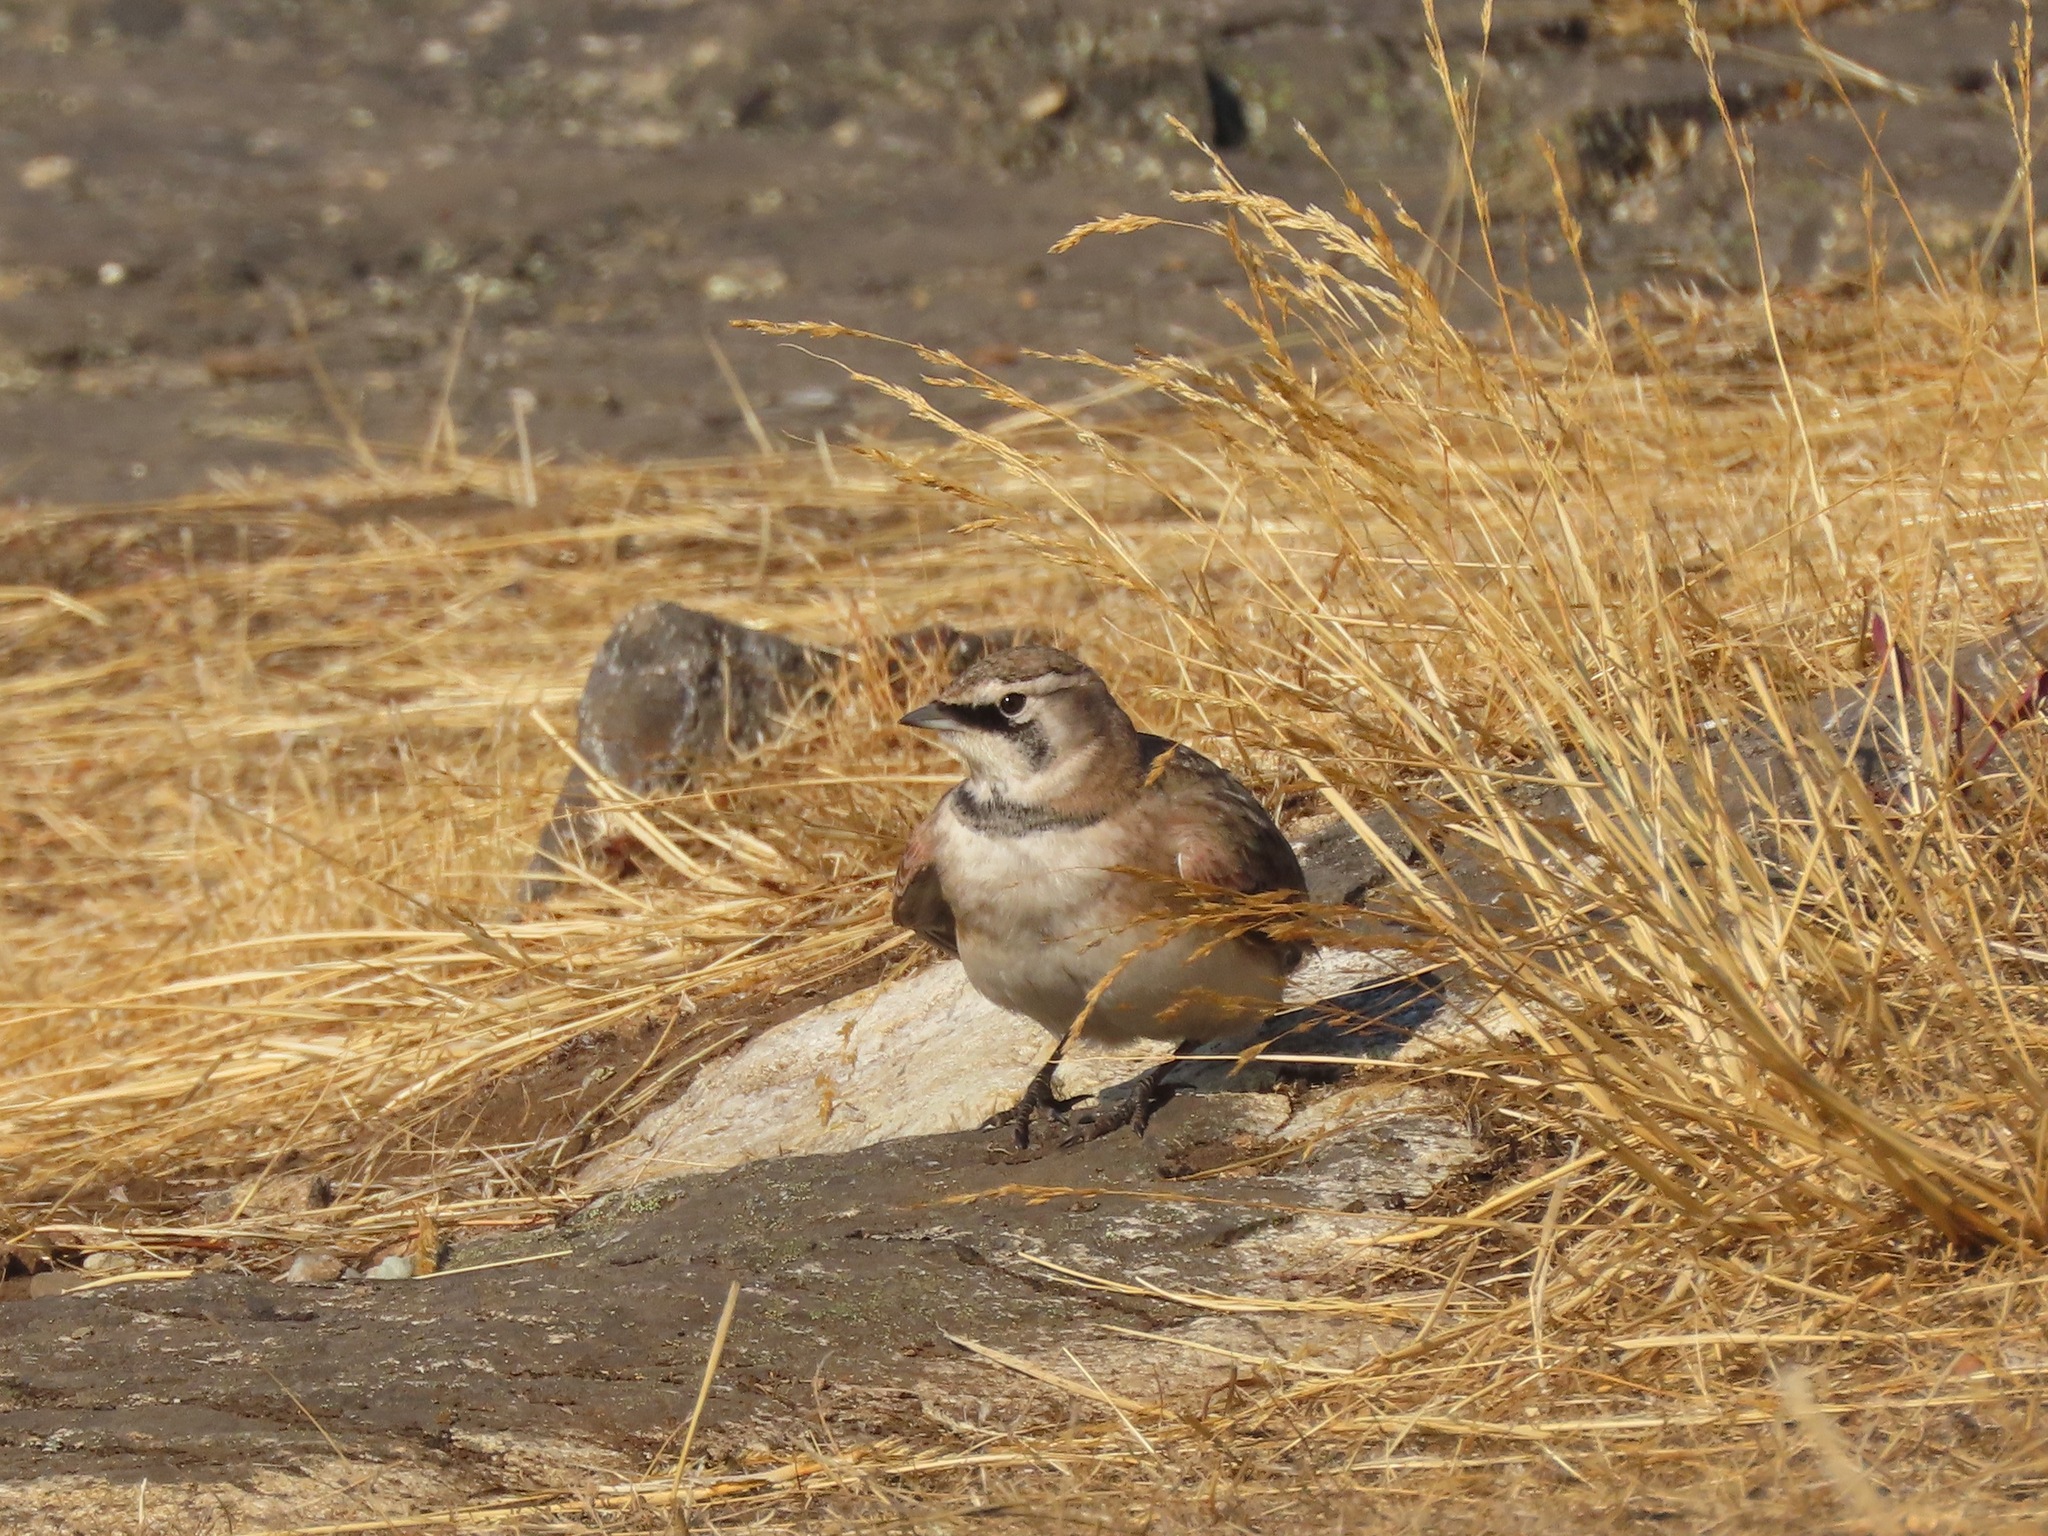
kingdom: Animalia
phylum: Chordata
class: Aves
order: Passeriformes
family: Alaudidae
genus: Eremophila
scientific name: Eremophila alpestris
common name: Horned lark
